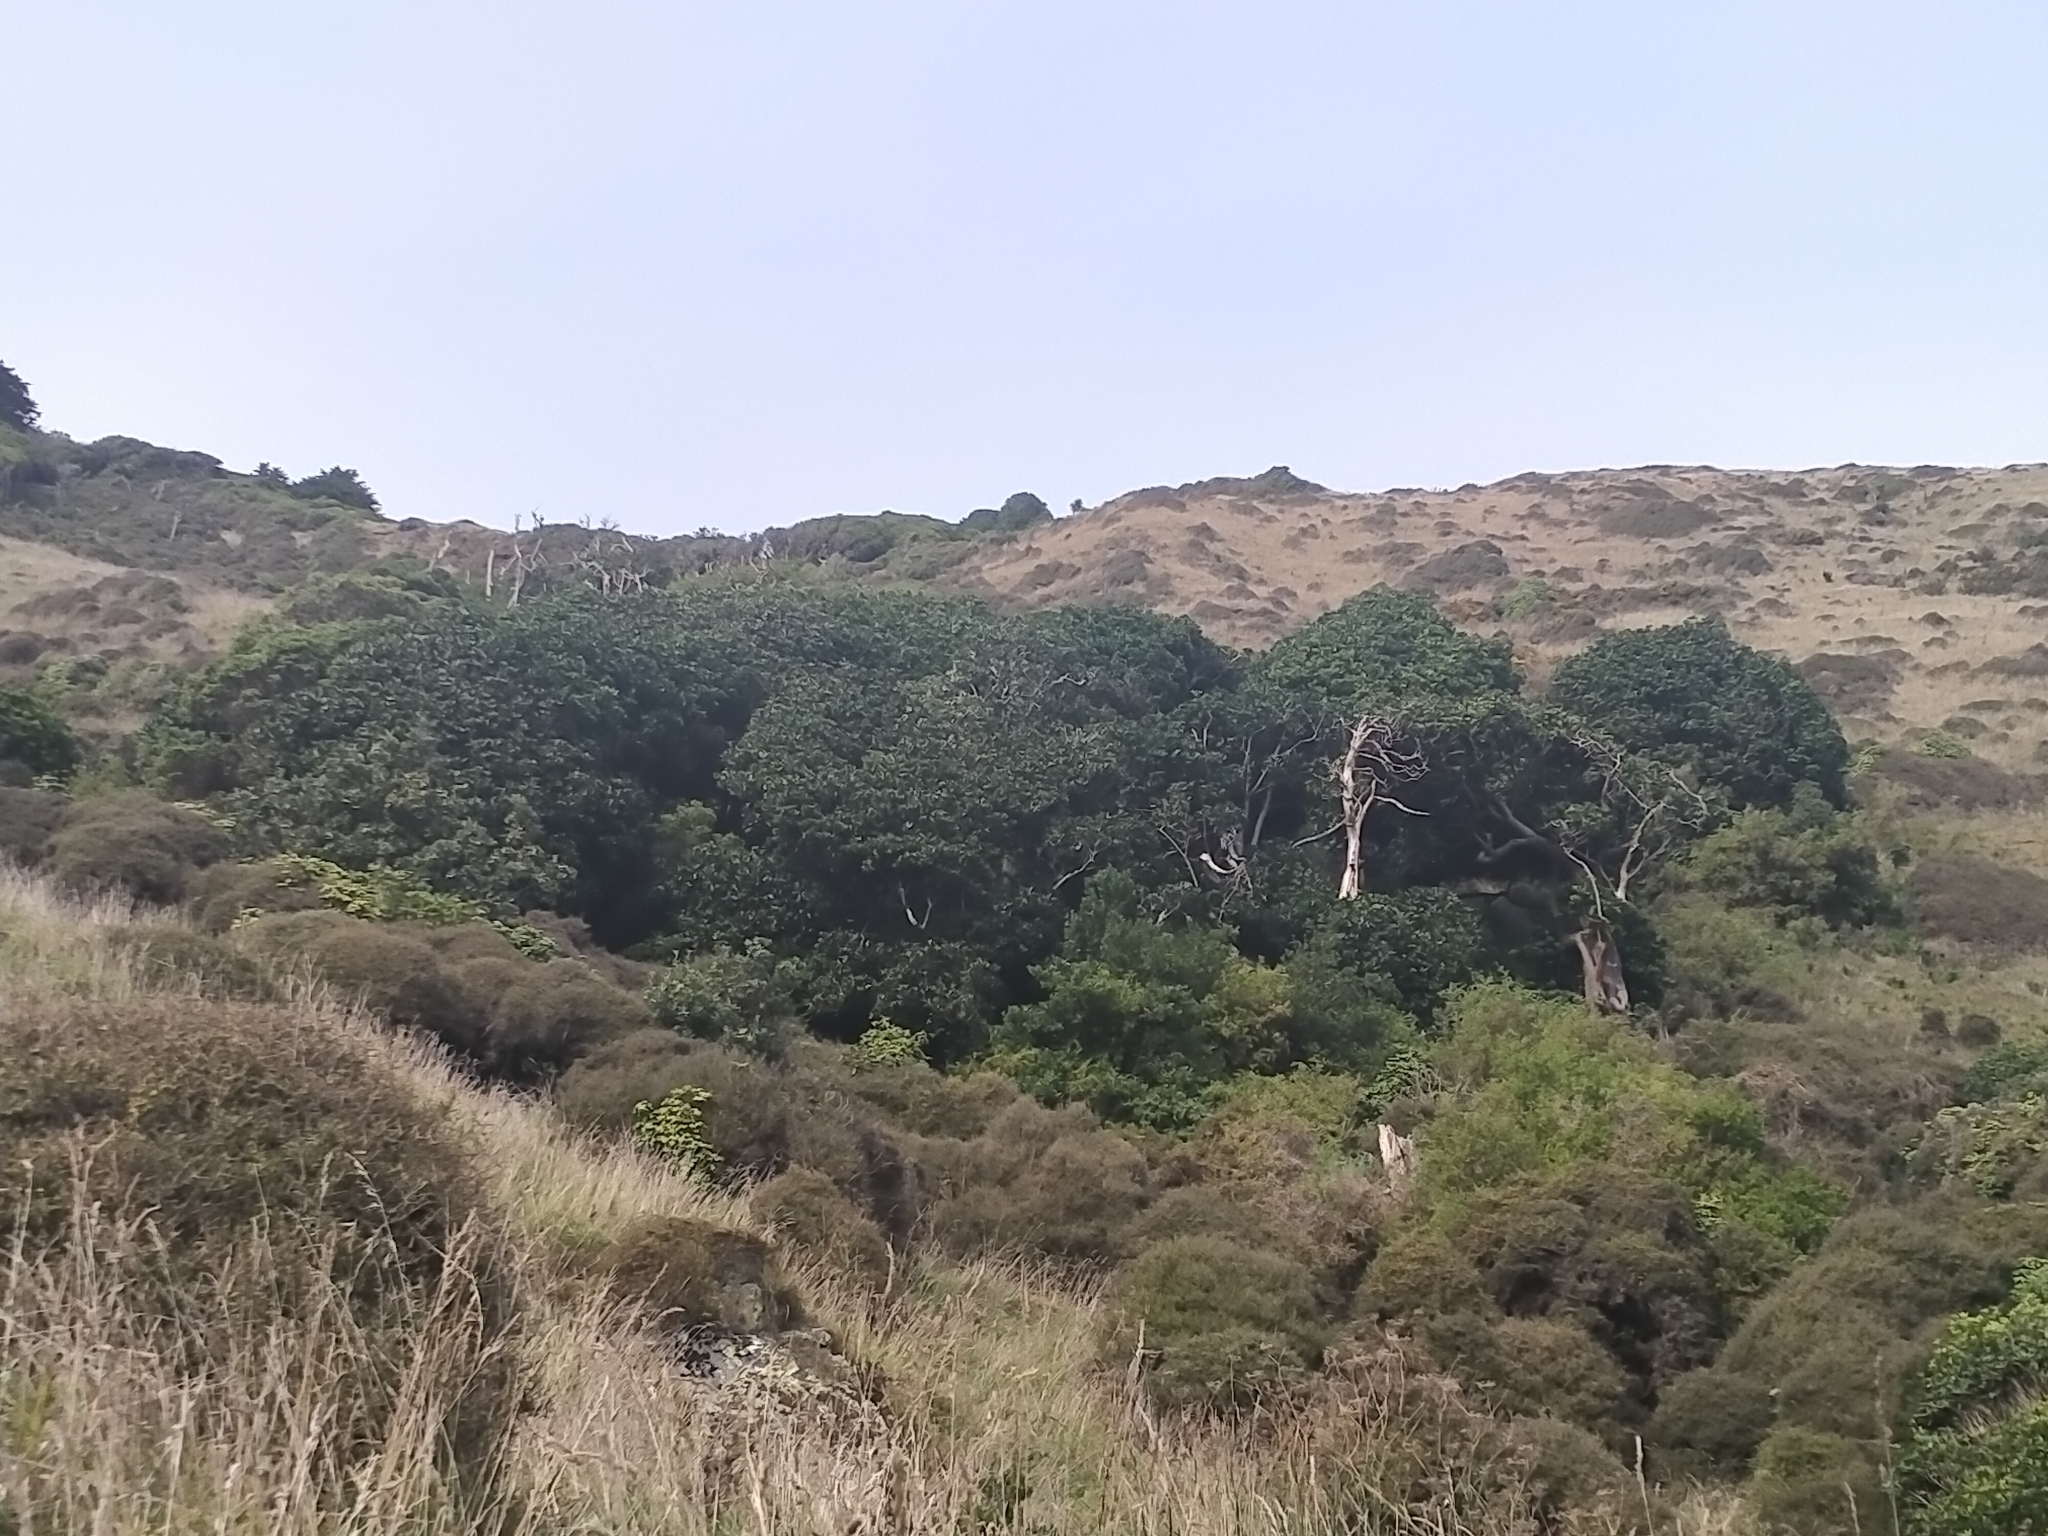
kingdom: Plantae
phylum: Tracheophyta
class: Magnoliopsida
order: Cucurbitales
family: Corynocarpaceae
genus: Corynocarpus
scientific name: Corynocarpus laevigatus
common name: New zealand laurel
